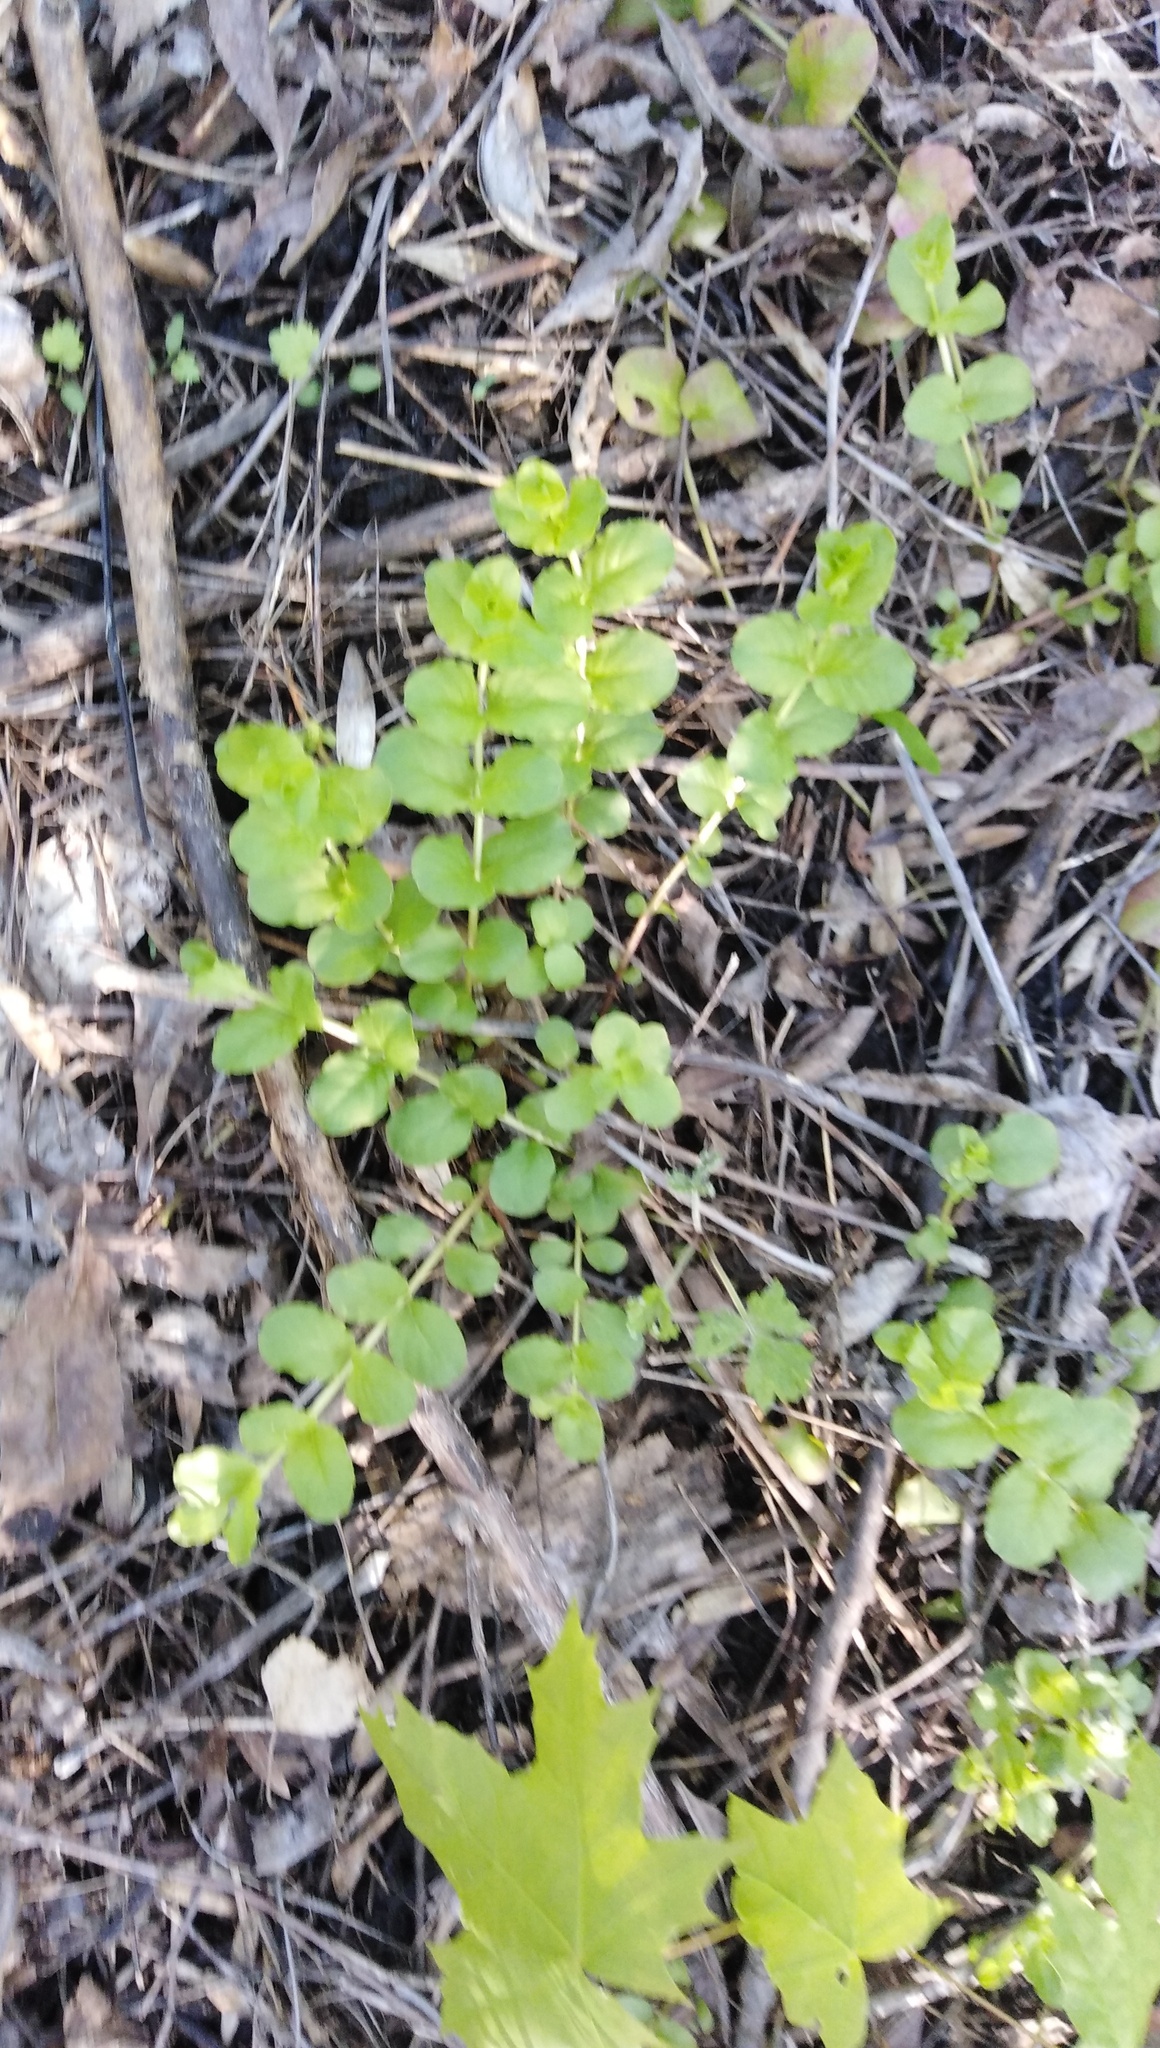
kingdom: Plantae
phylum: Tracheophyta
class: Magnoliopsida
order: Ericales
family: Primulaceae
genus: Lysimachia
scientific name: Lysimachia nummularia
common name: Moneywort
